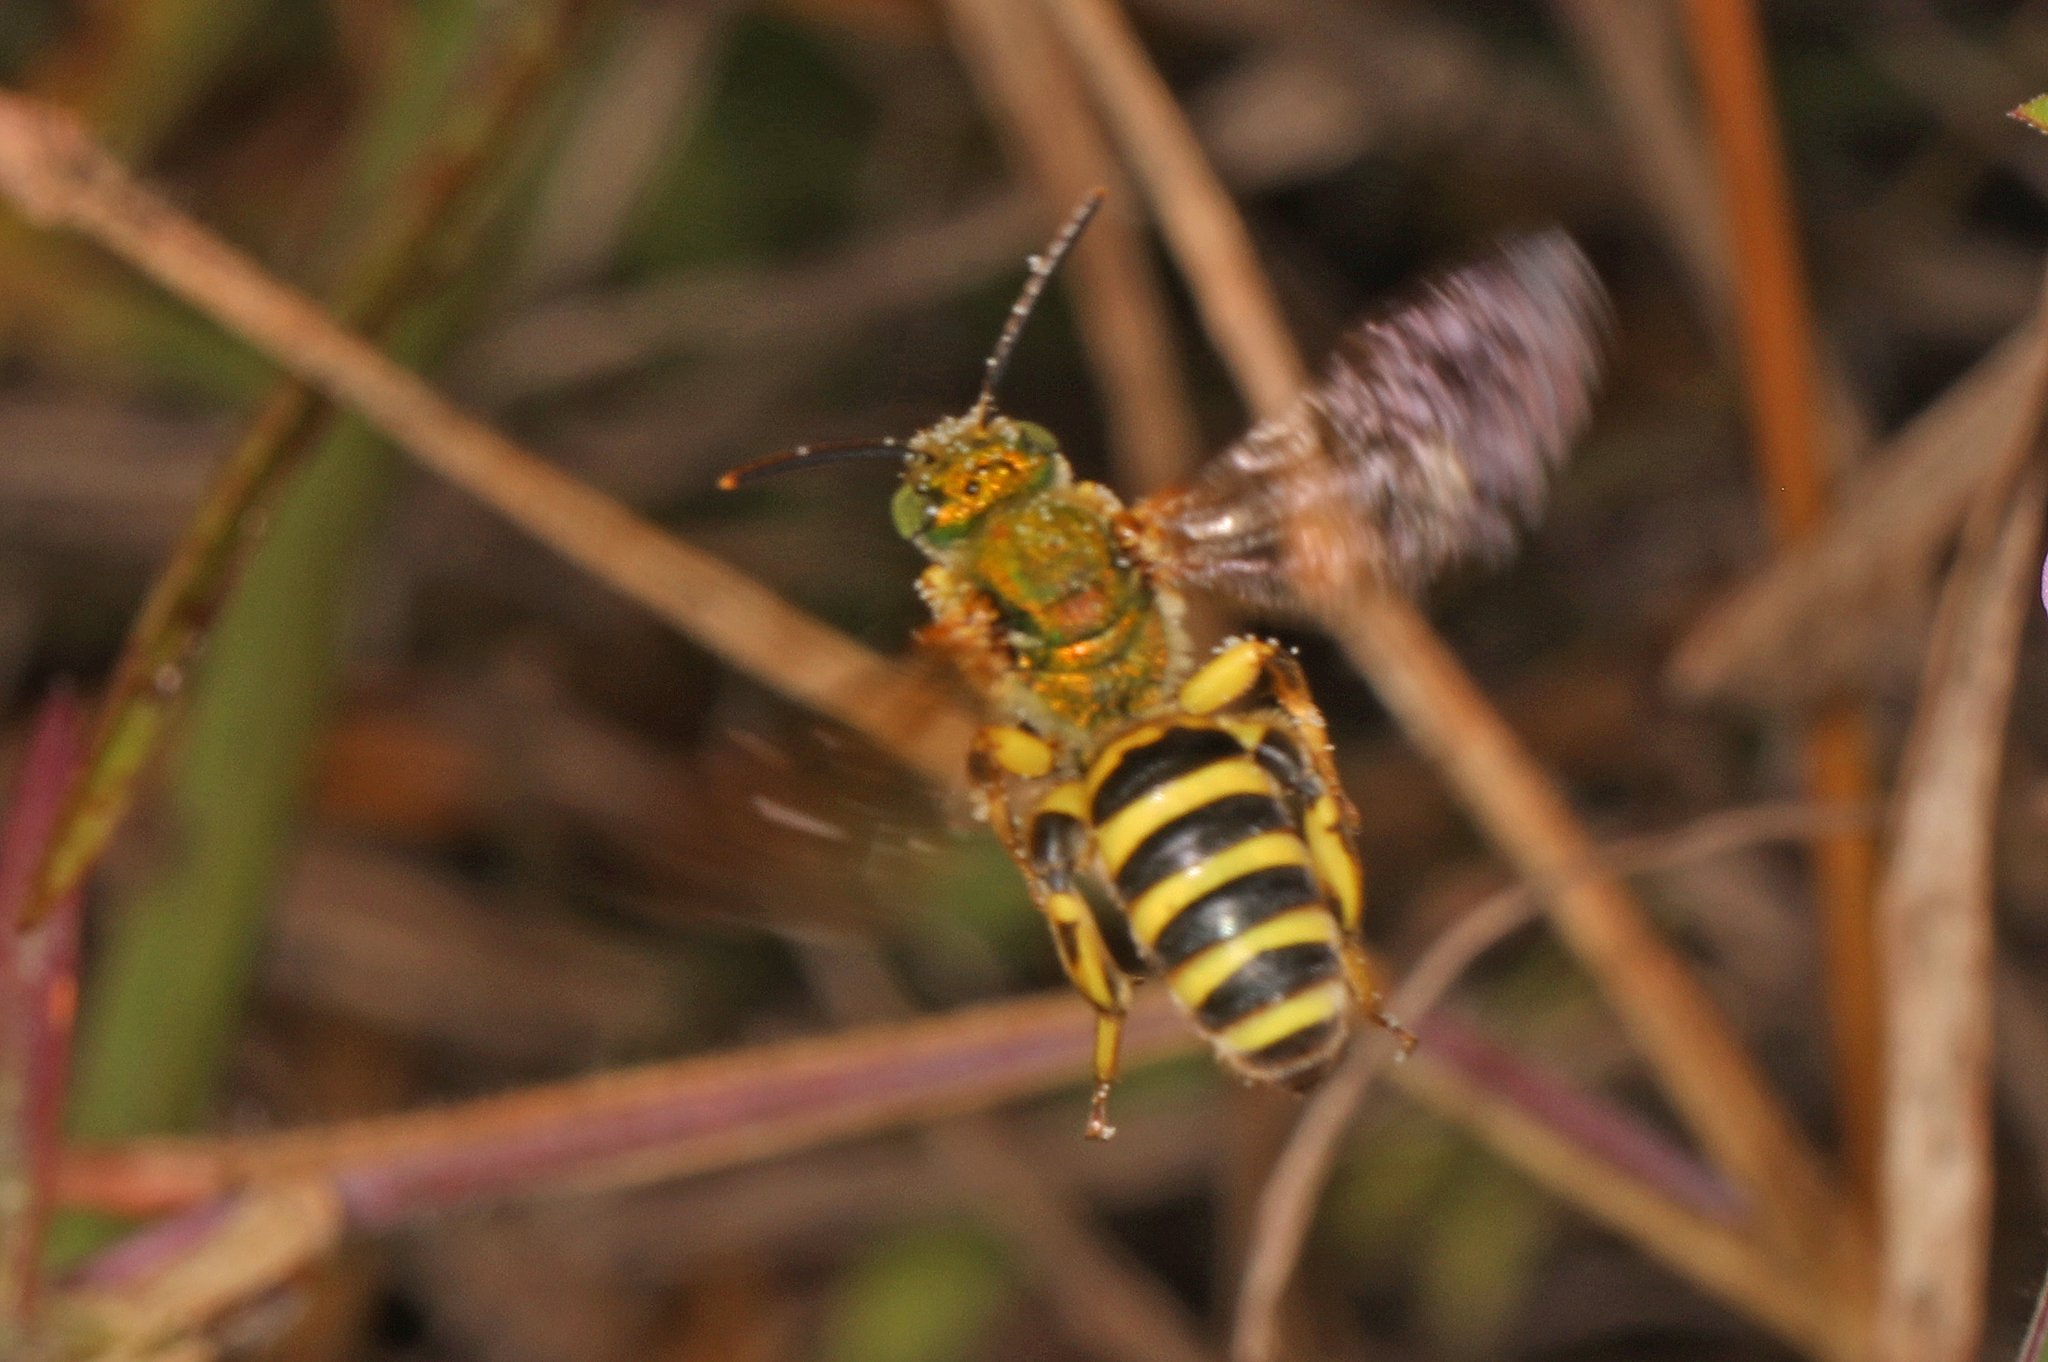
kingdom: Animalia
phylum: Arthropoda
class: Insecta
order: Hymenoptera
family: Halictidae
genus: Agapostemon
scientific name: Agapostemon splendens
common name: Brown-winged striped sweat bee
